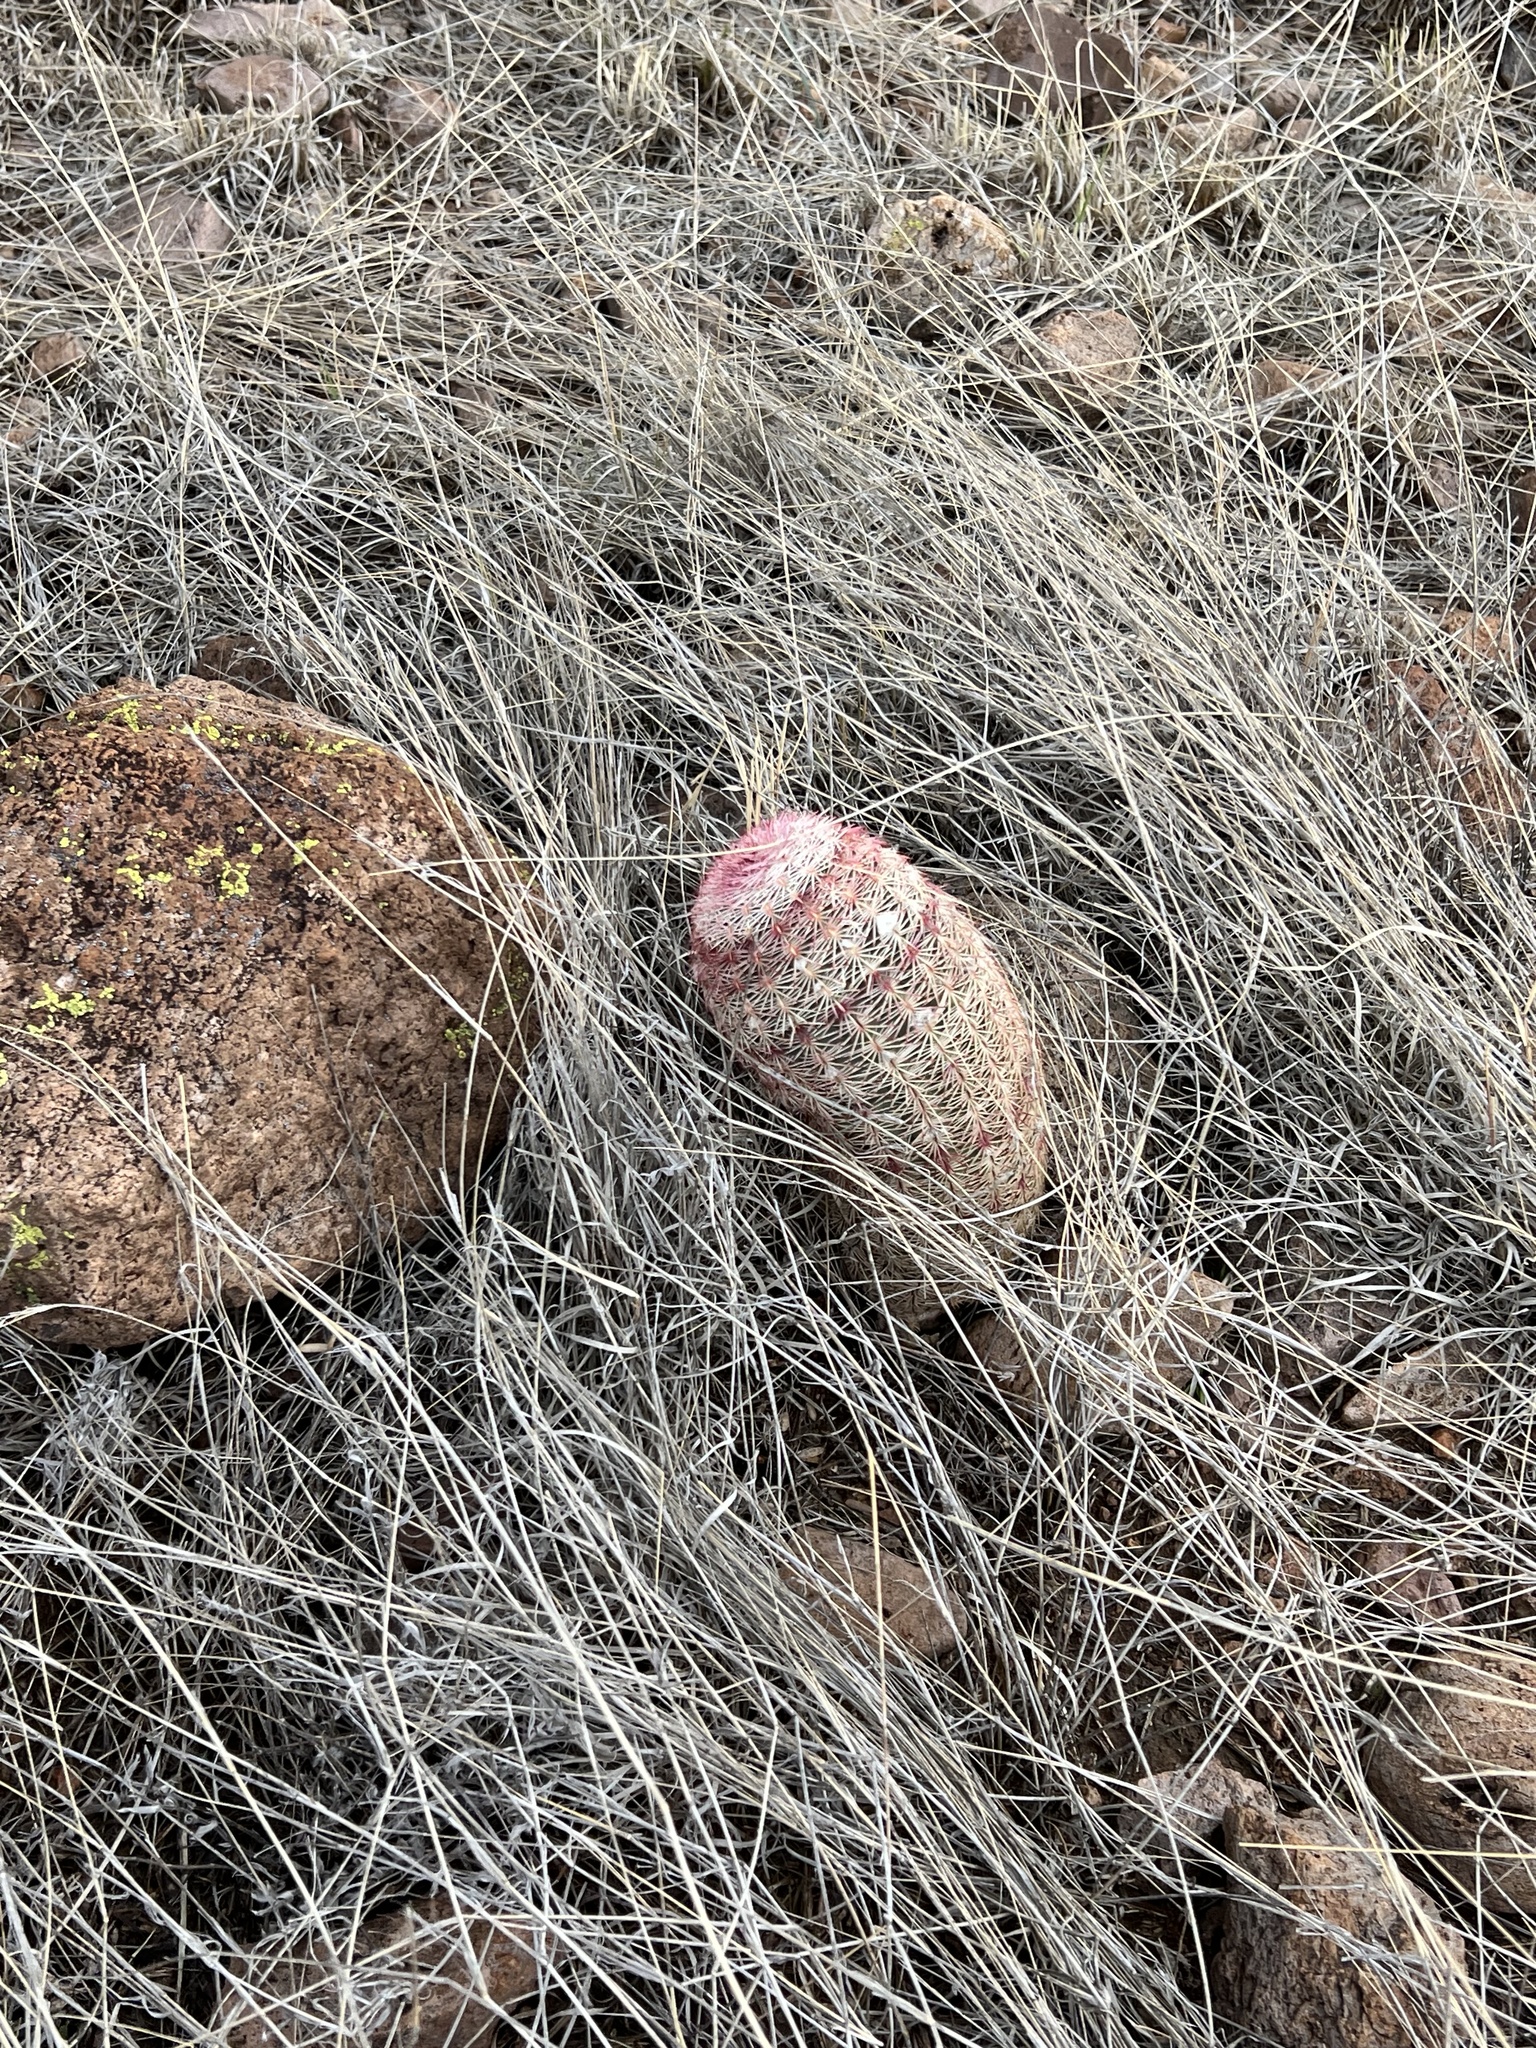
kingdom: Plantae
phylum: Tracheophyta
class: Magnoliopsida
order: Caryophyllales
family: Cactaceae
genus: Echinocereus
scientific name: Echinocereus rigidissimus
